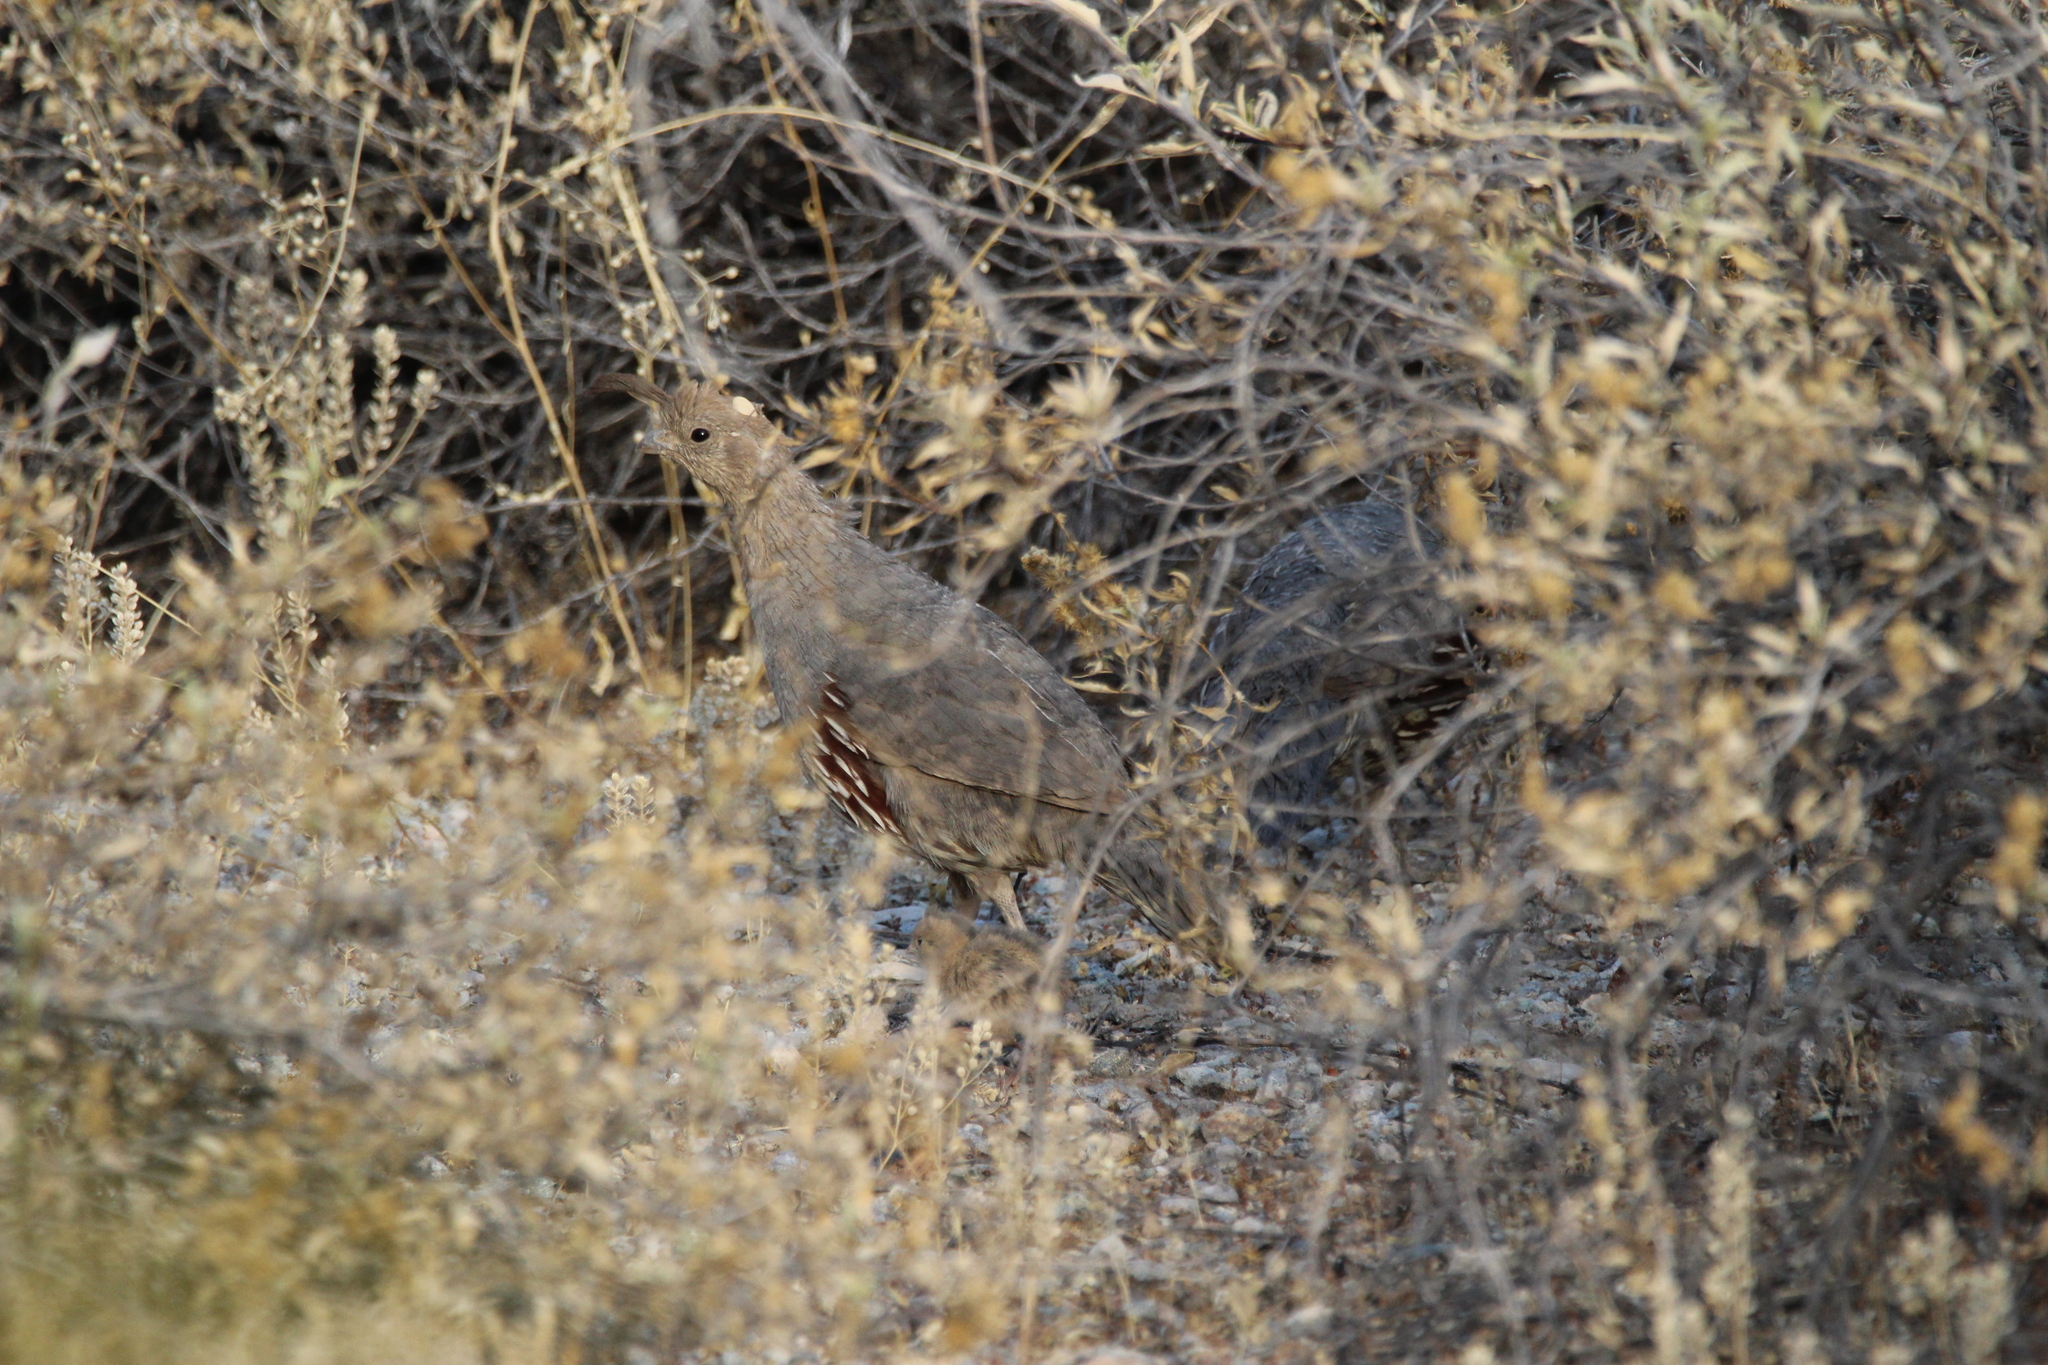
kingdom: Animalia
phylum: Chordata
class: Aves
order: Galliformes
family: Odontophoridae
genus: Callipepla
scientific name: Callipepla gambelii
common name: Gambel's quail
